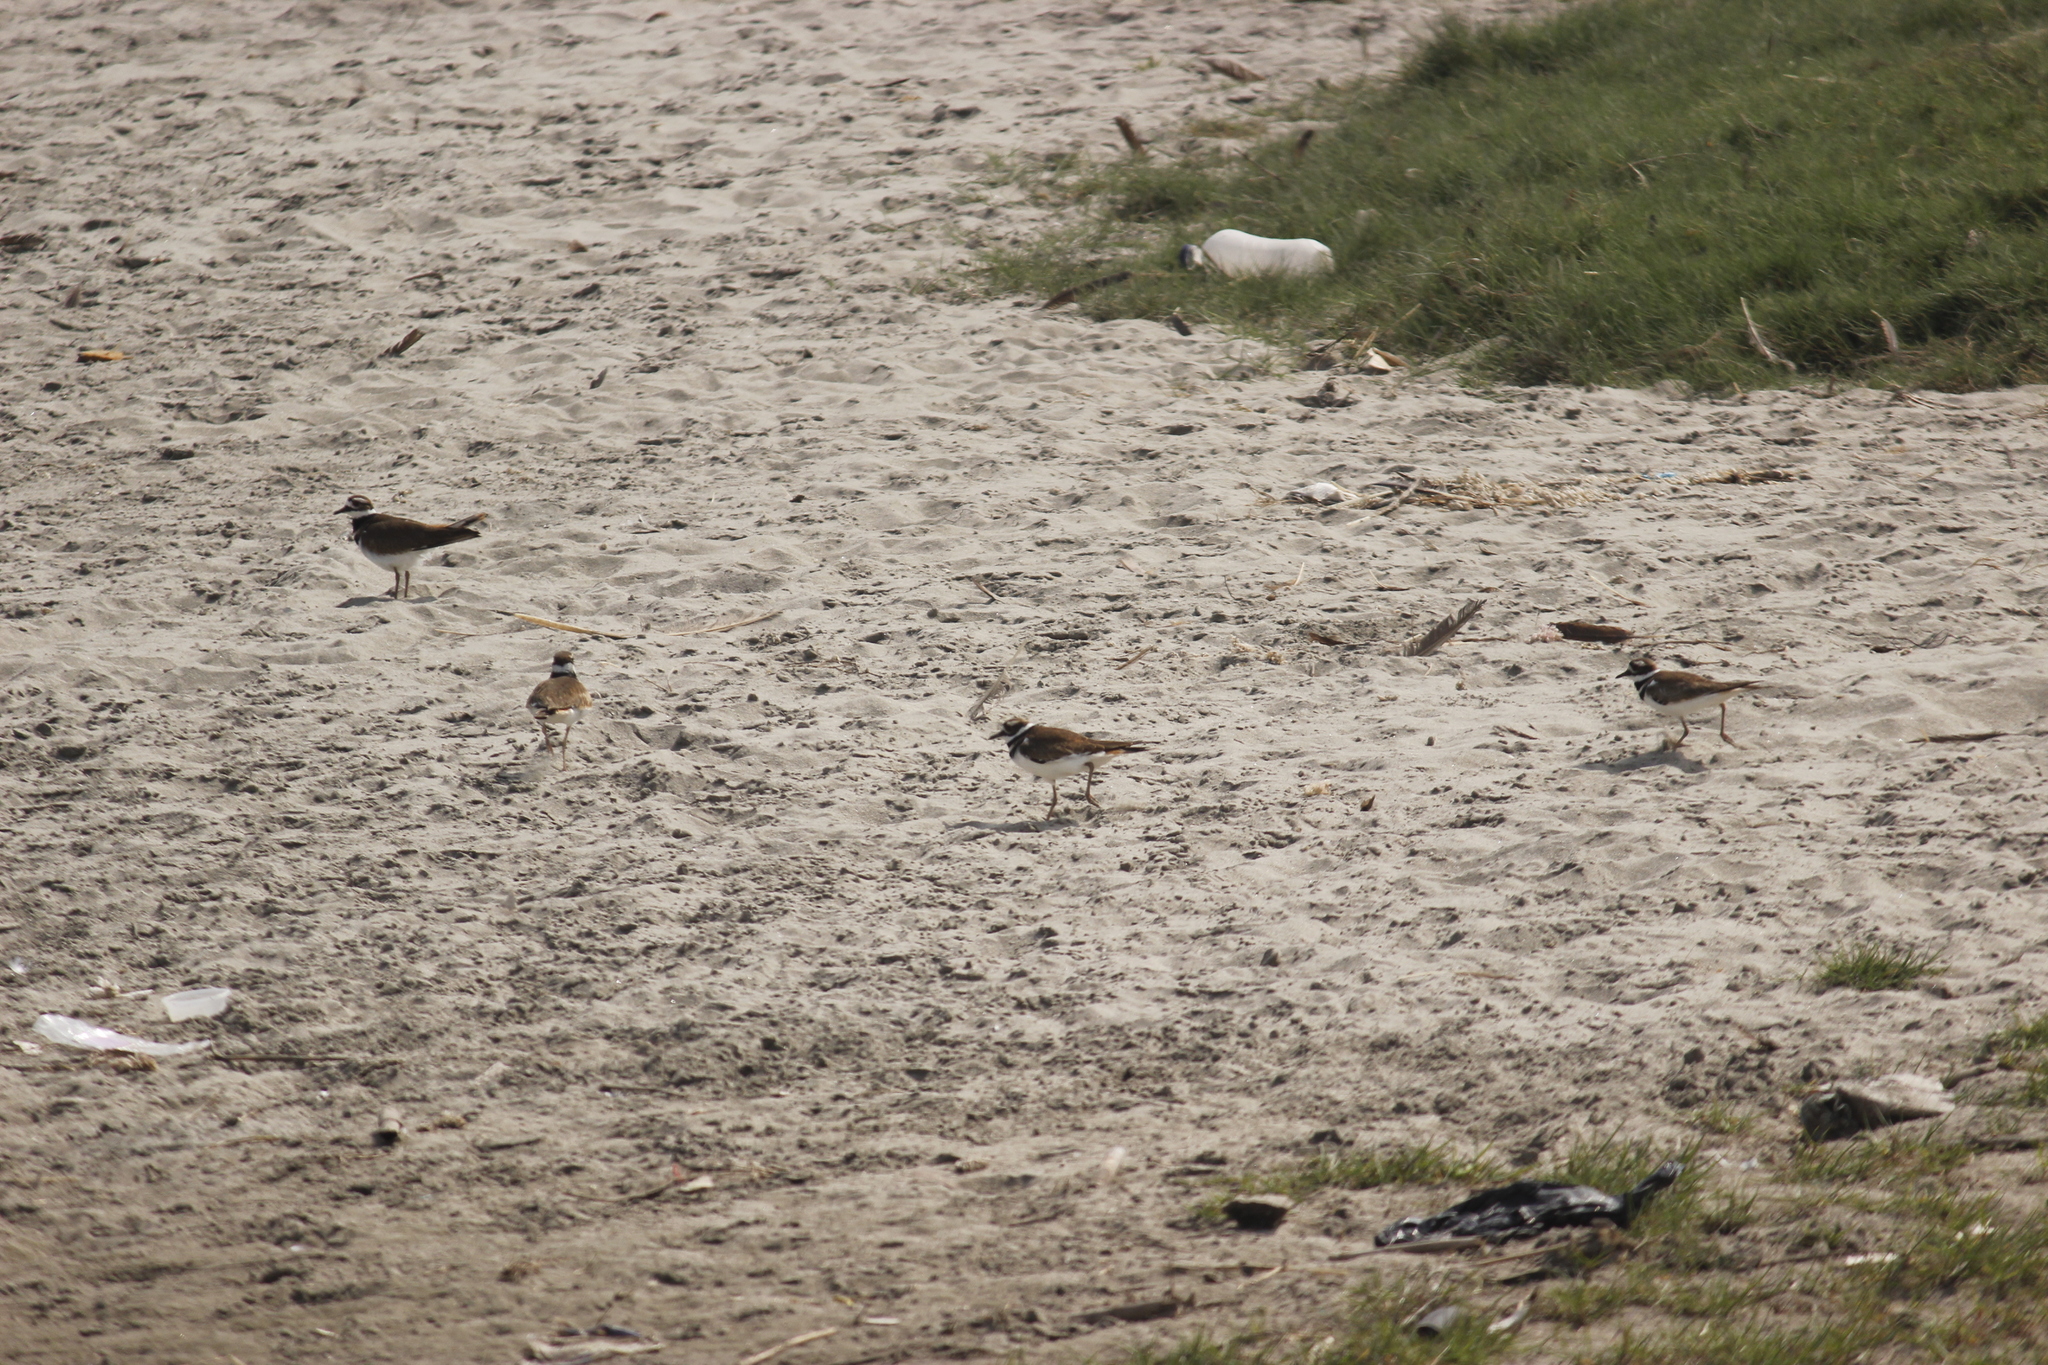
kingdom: Animalia
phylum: Chordata
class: Aves
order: Charadriiformes
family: Charadriidae
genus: Charadrius
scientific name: Charadrius vociferus
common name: Killdeer
